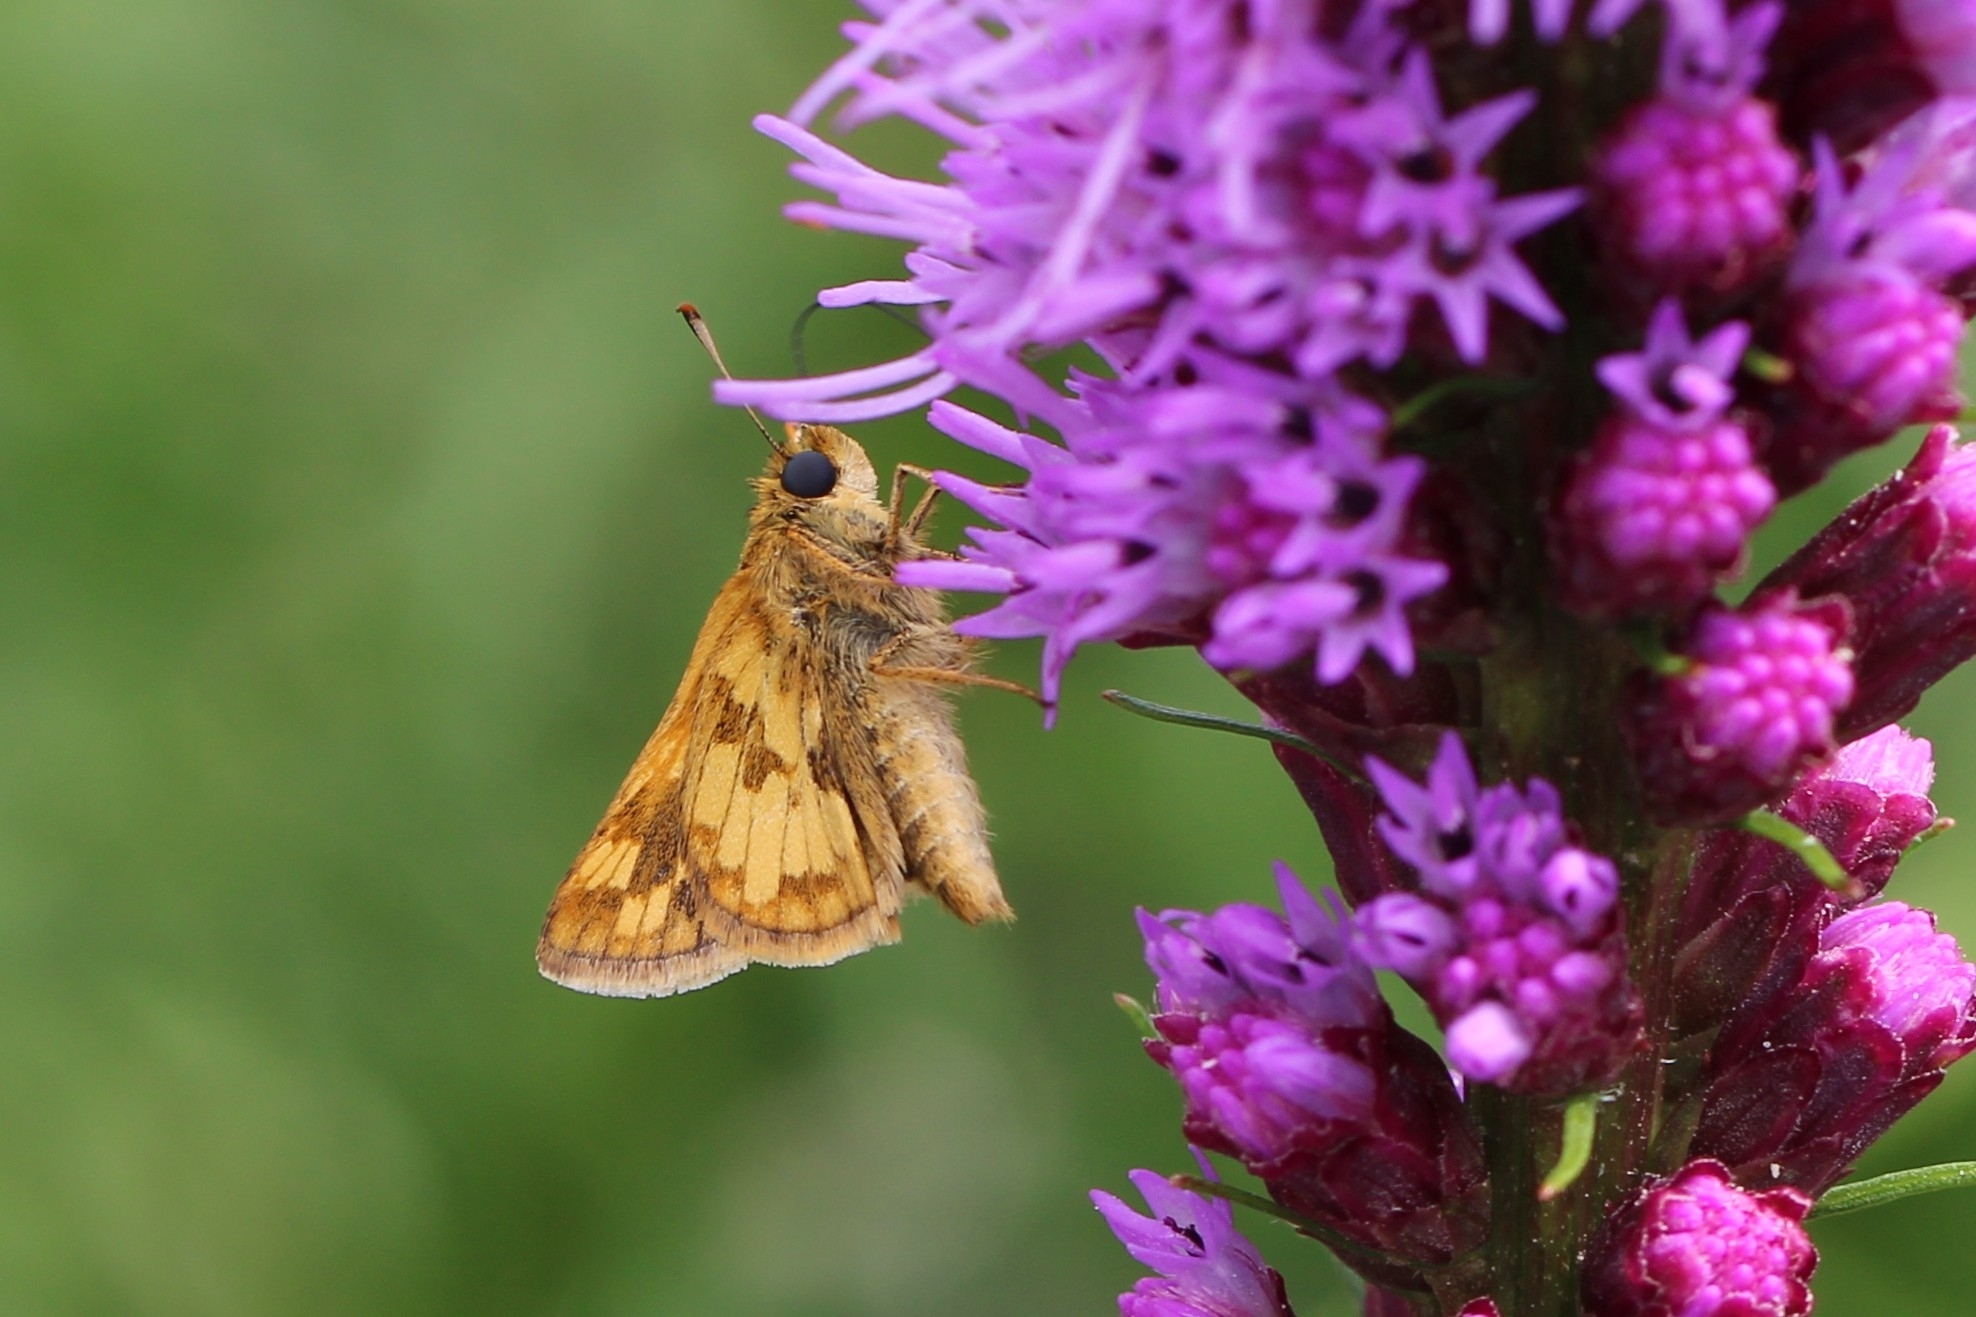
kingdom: Animalia
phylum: Arthropoda
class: Insecta
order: Lepidoptera
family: Hesperiidae
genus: Polites
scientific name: Polites coras
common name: Peck's skipper
